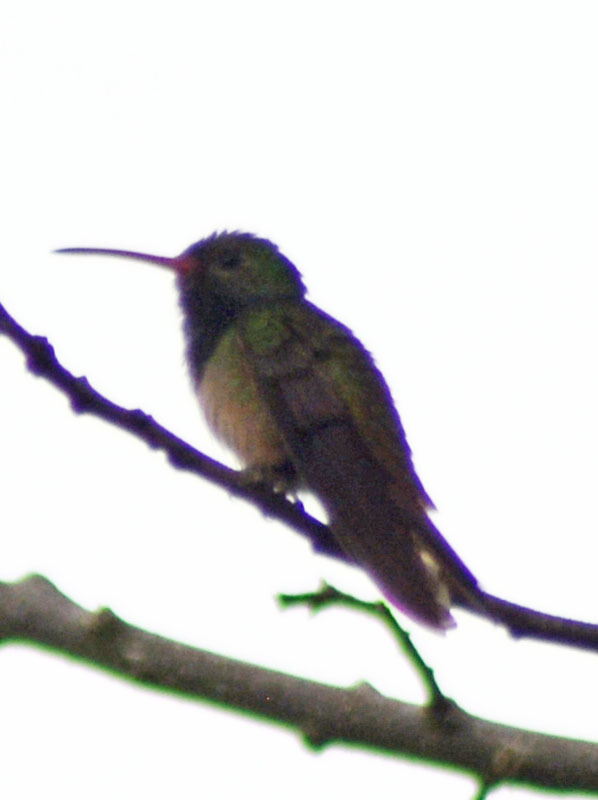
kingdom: Animalia
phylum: Chordata
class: Aves
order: Apodiformes
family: Trochilidae
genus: Amazilia
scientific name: Amazilia yucatanensis
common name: Buff-bellied hummingbird
